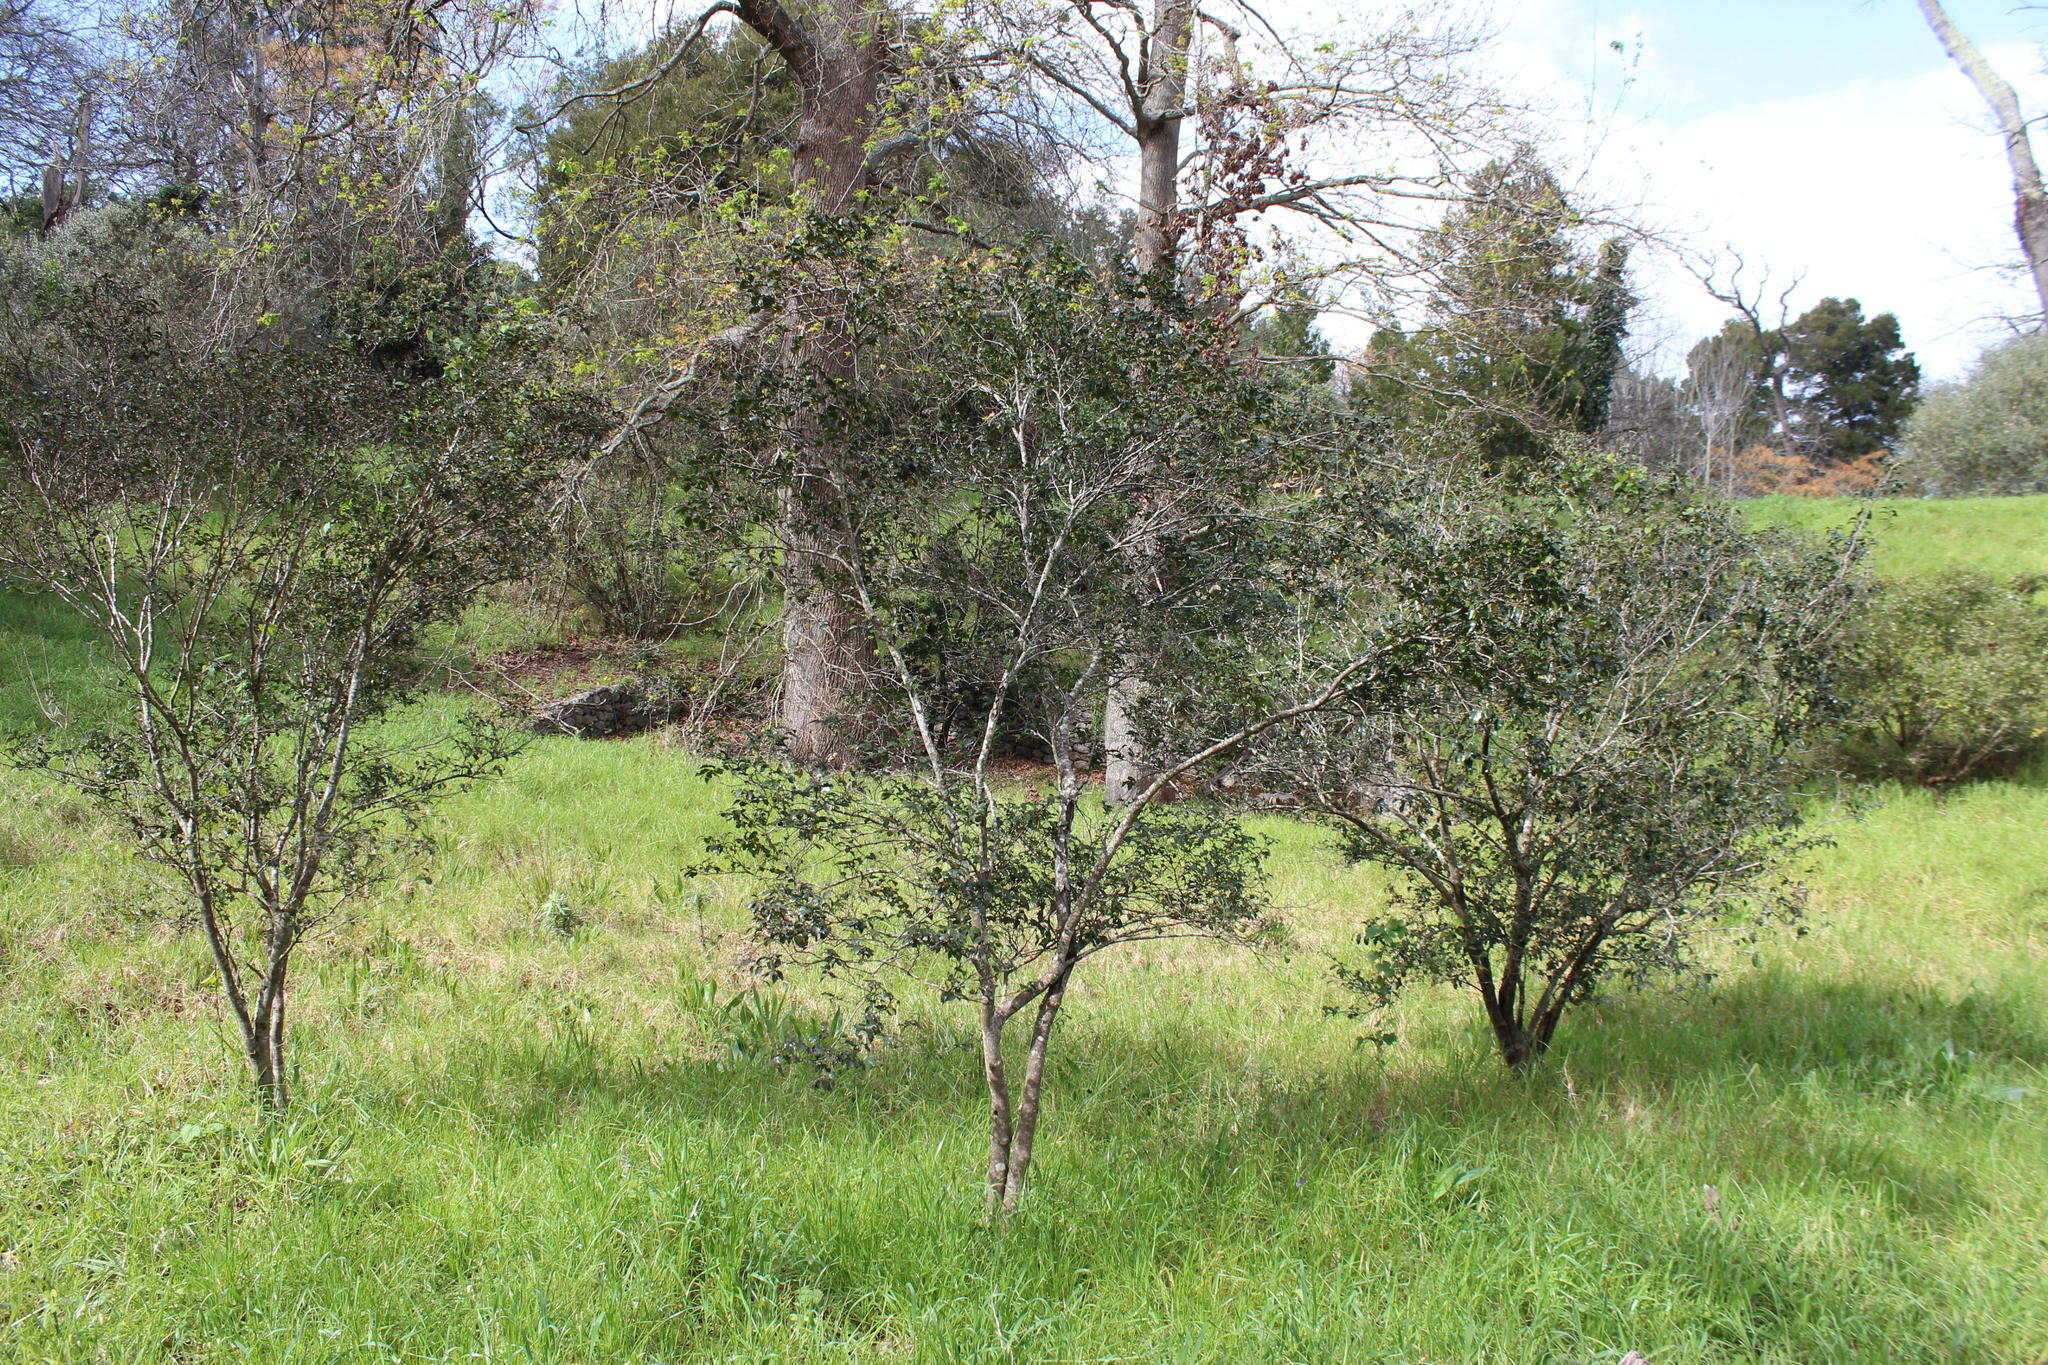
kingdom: Plantae
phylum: Tracheophyta
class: Magnoliopsida
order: Ericales
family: Ebenaceae
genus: Diospyros
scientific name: Diospyros whyteana
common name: Bladder-nut
